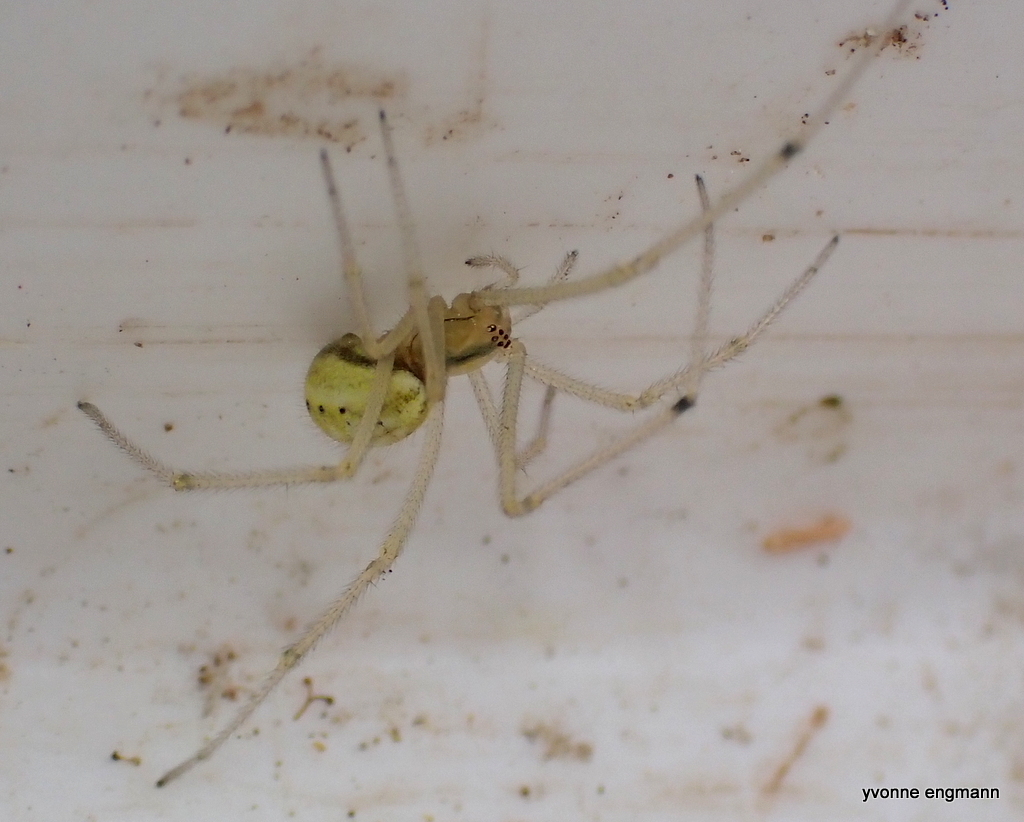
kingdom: Animalia
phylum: Arthropoda
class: Arachnida
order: Araneae
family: Theridiidae
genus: Enoplognatha
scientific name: Enoplognatha
